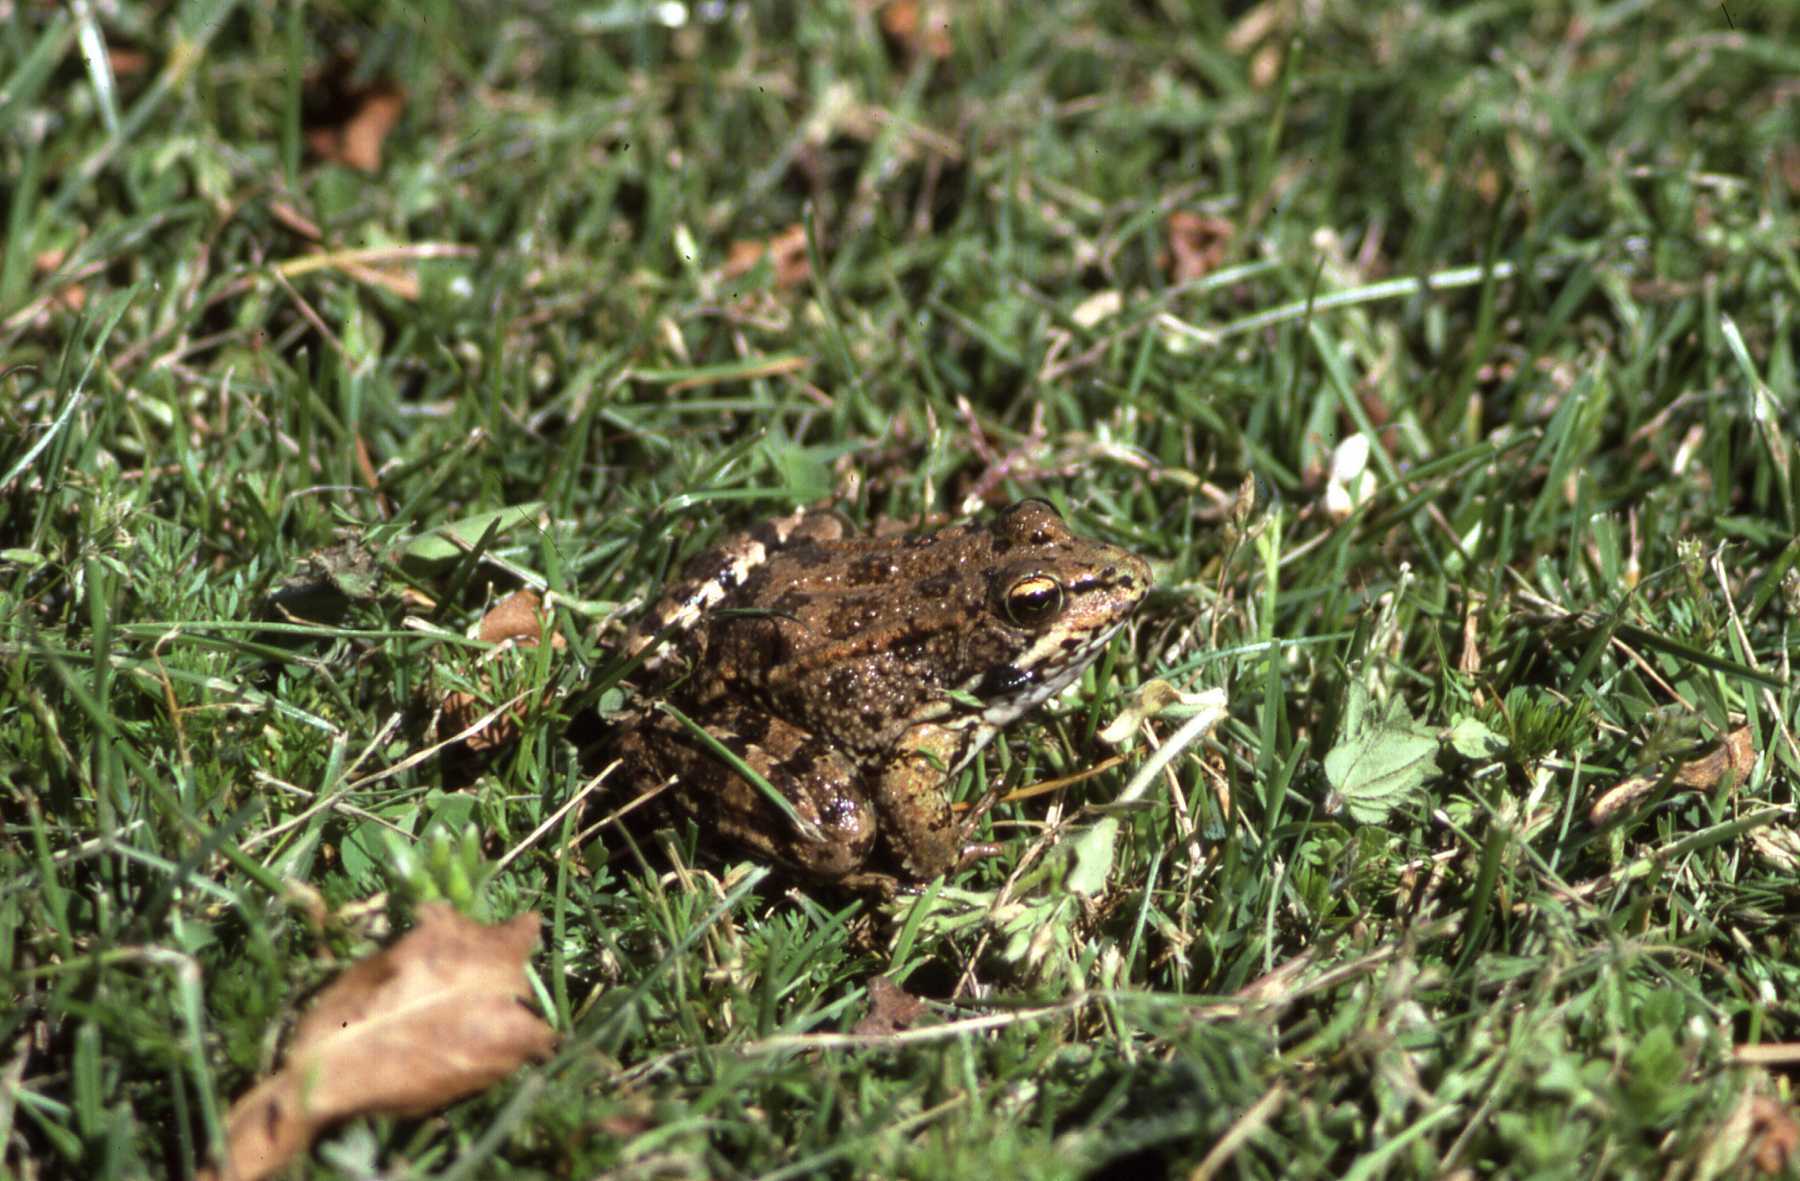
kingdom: Animalia
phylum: Chordata
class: Amphibia
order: Anura
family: Ranidae
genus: Pelophylax
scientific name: Pelophylax perezi
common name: Perez's frog
